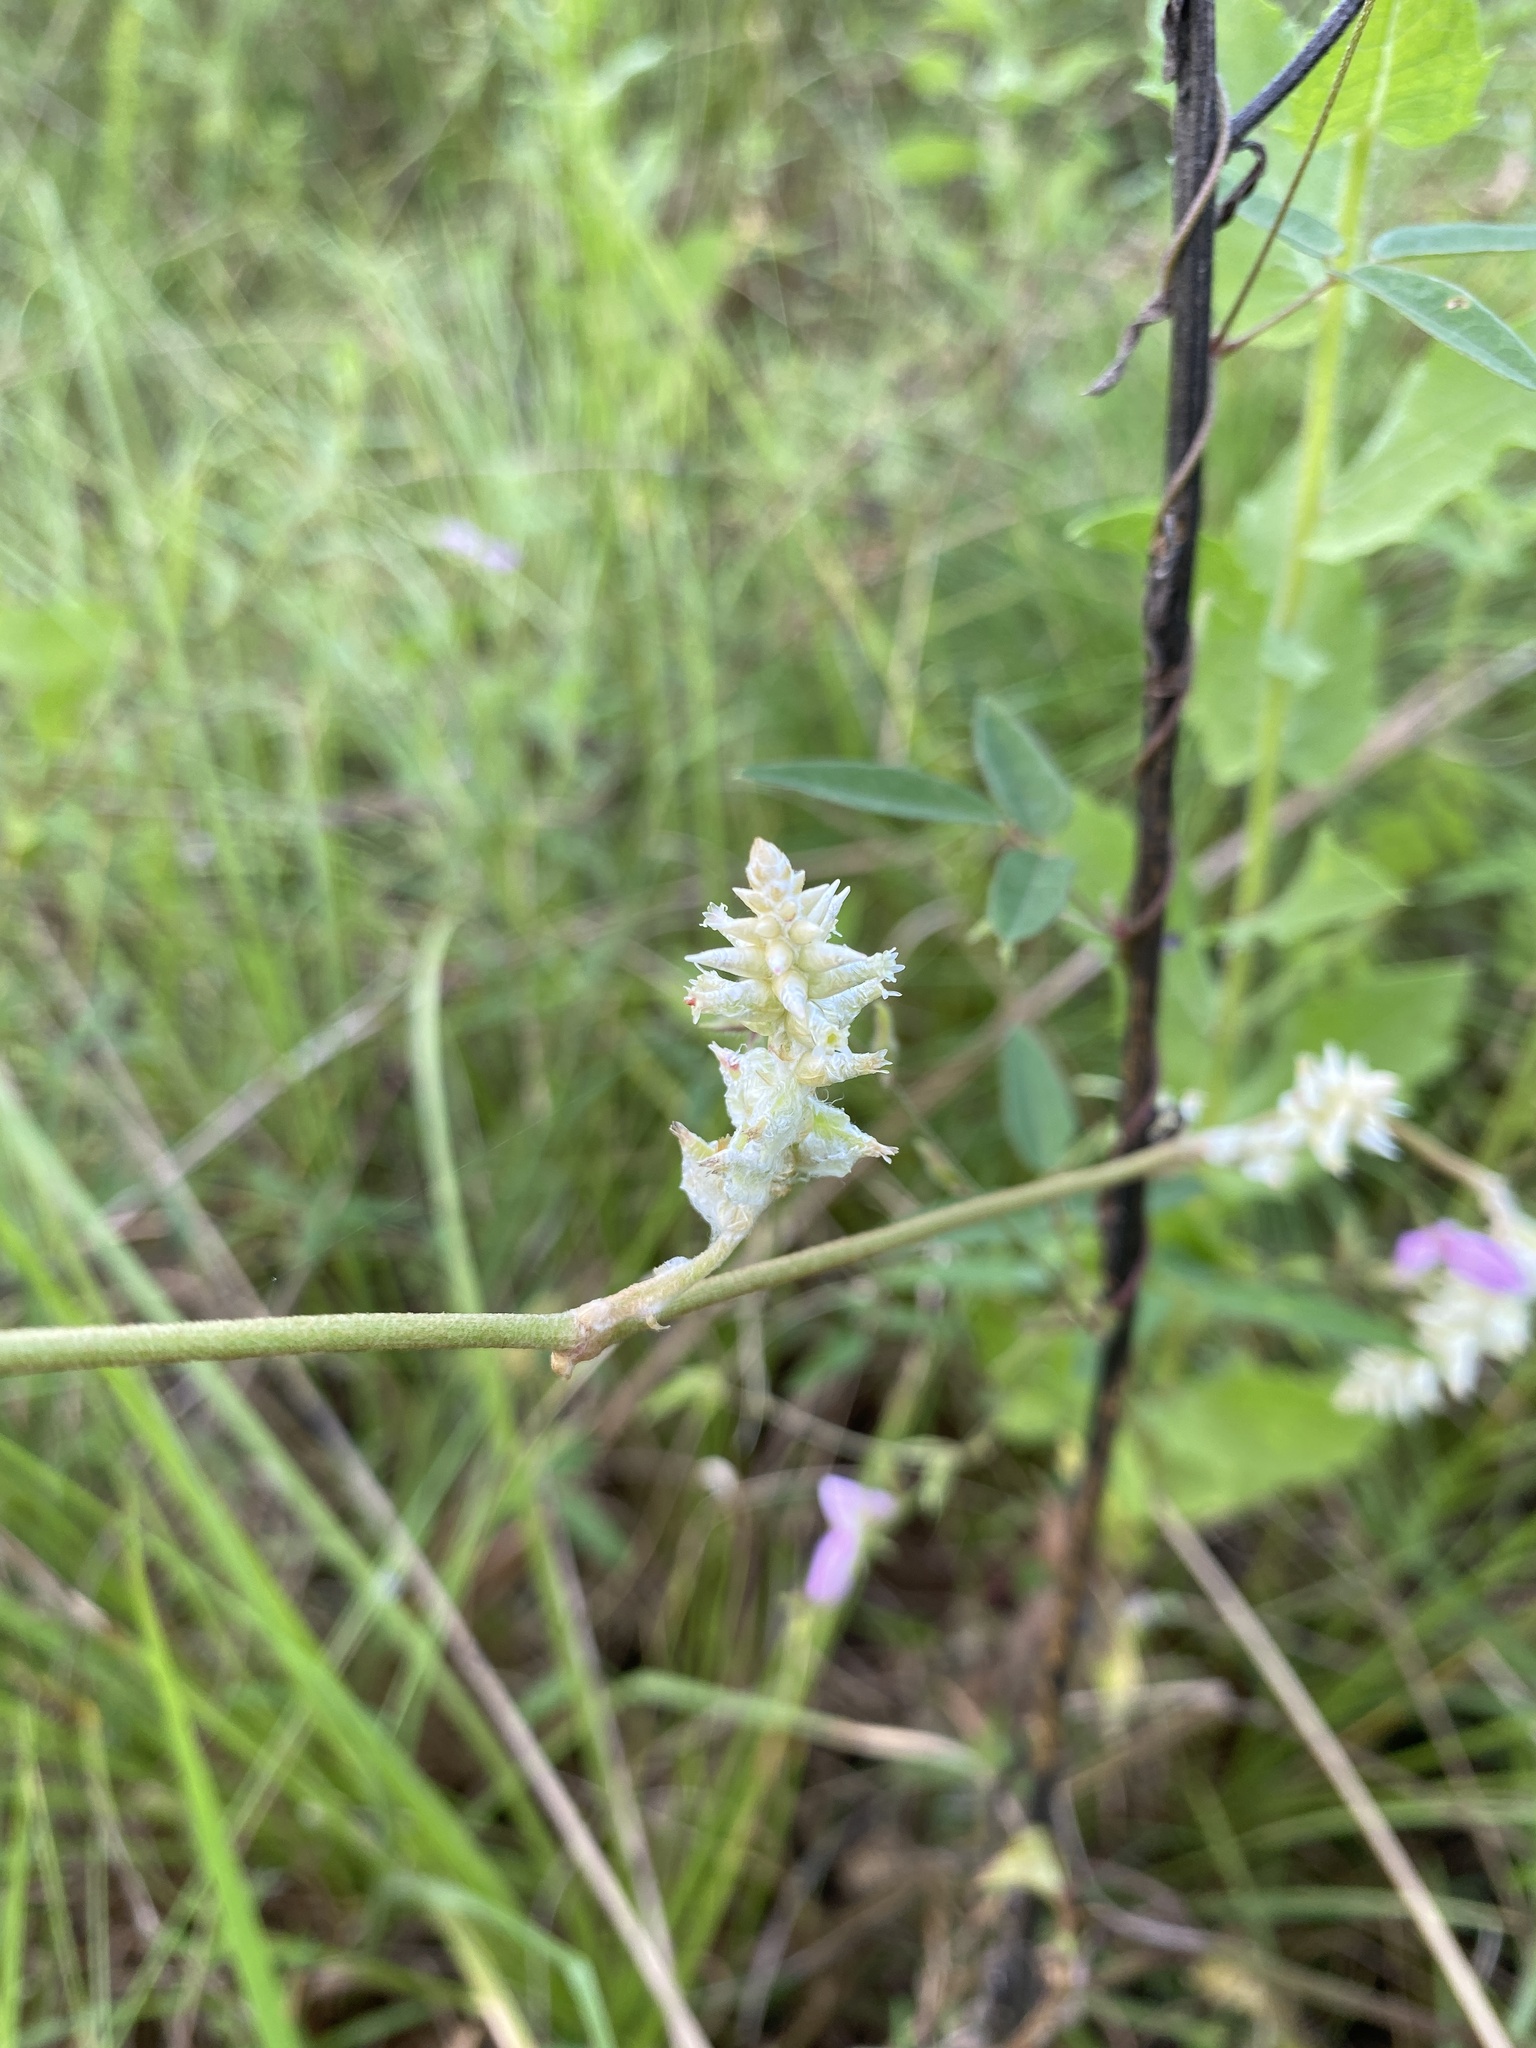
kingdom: Plantae
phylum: Tracheophyta
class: Magnoliopsida
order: Caryophyllales
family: Amaranthaceae
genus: Froelichia
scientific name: Froelichia floridana
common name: Florida snake-cotton
